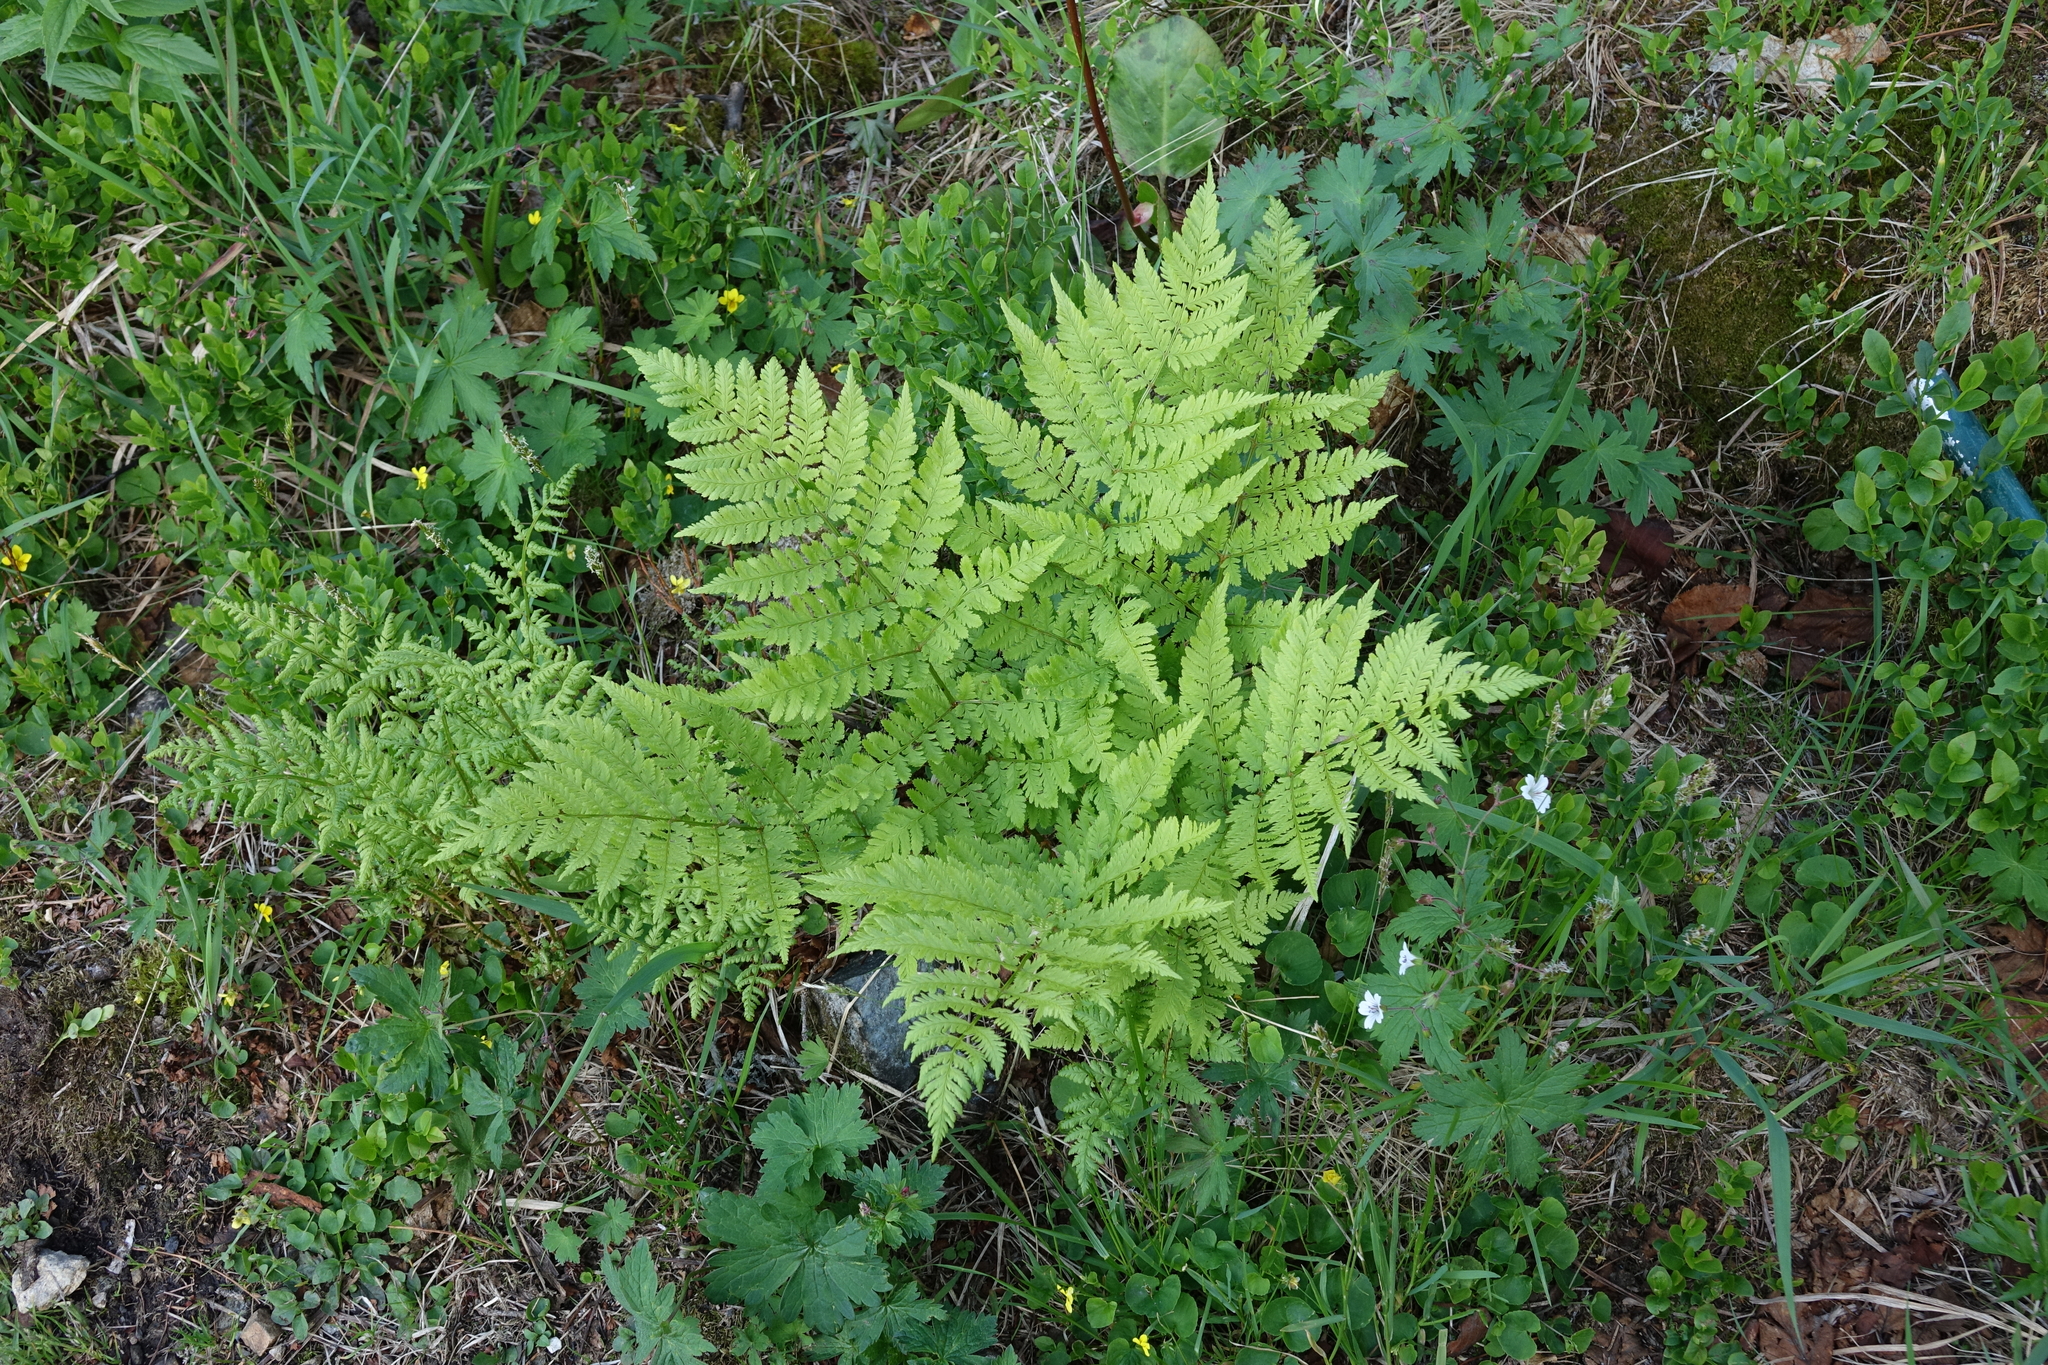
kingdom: Plantae
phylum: Tracheophyta
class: Polypodiopsida
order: Polypodiales
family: Dryopteridaceae
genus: Dryopteris
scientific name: Dryopteris expansa
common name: Northern buckler fern
